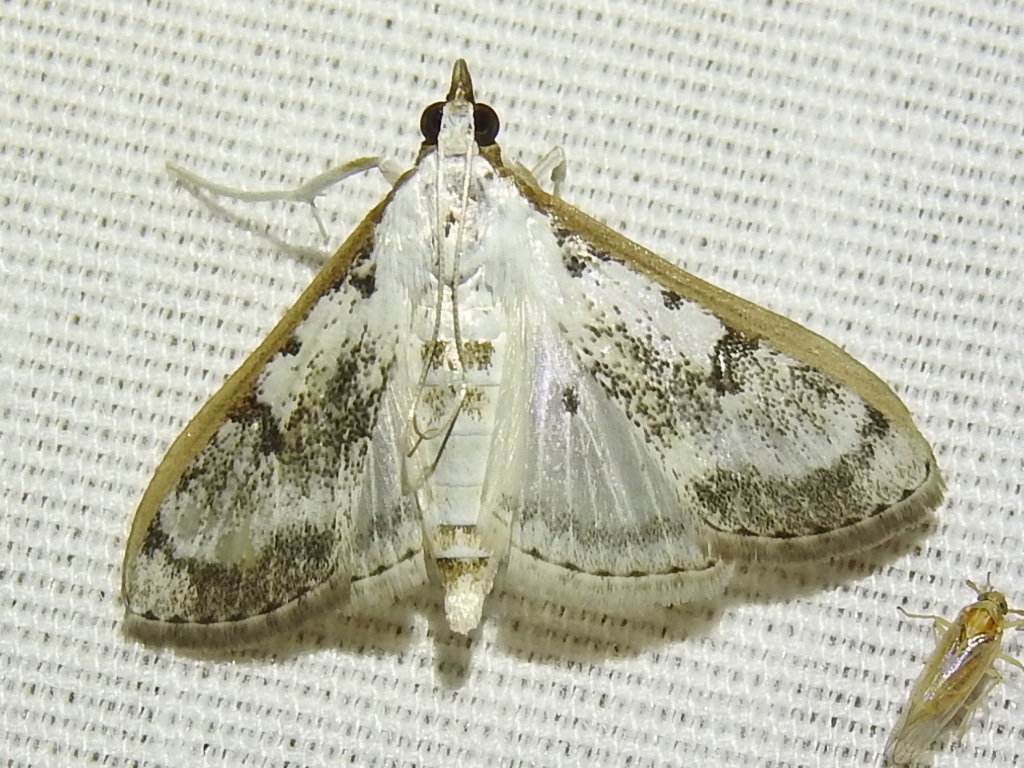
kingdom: Animalia
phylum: Arthropoda
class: Insecta
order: Lepidoptera
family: Crambidae
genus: Palpita
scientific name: Palpita gracilalis
